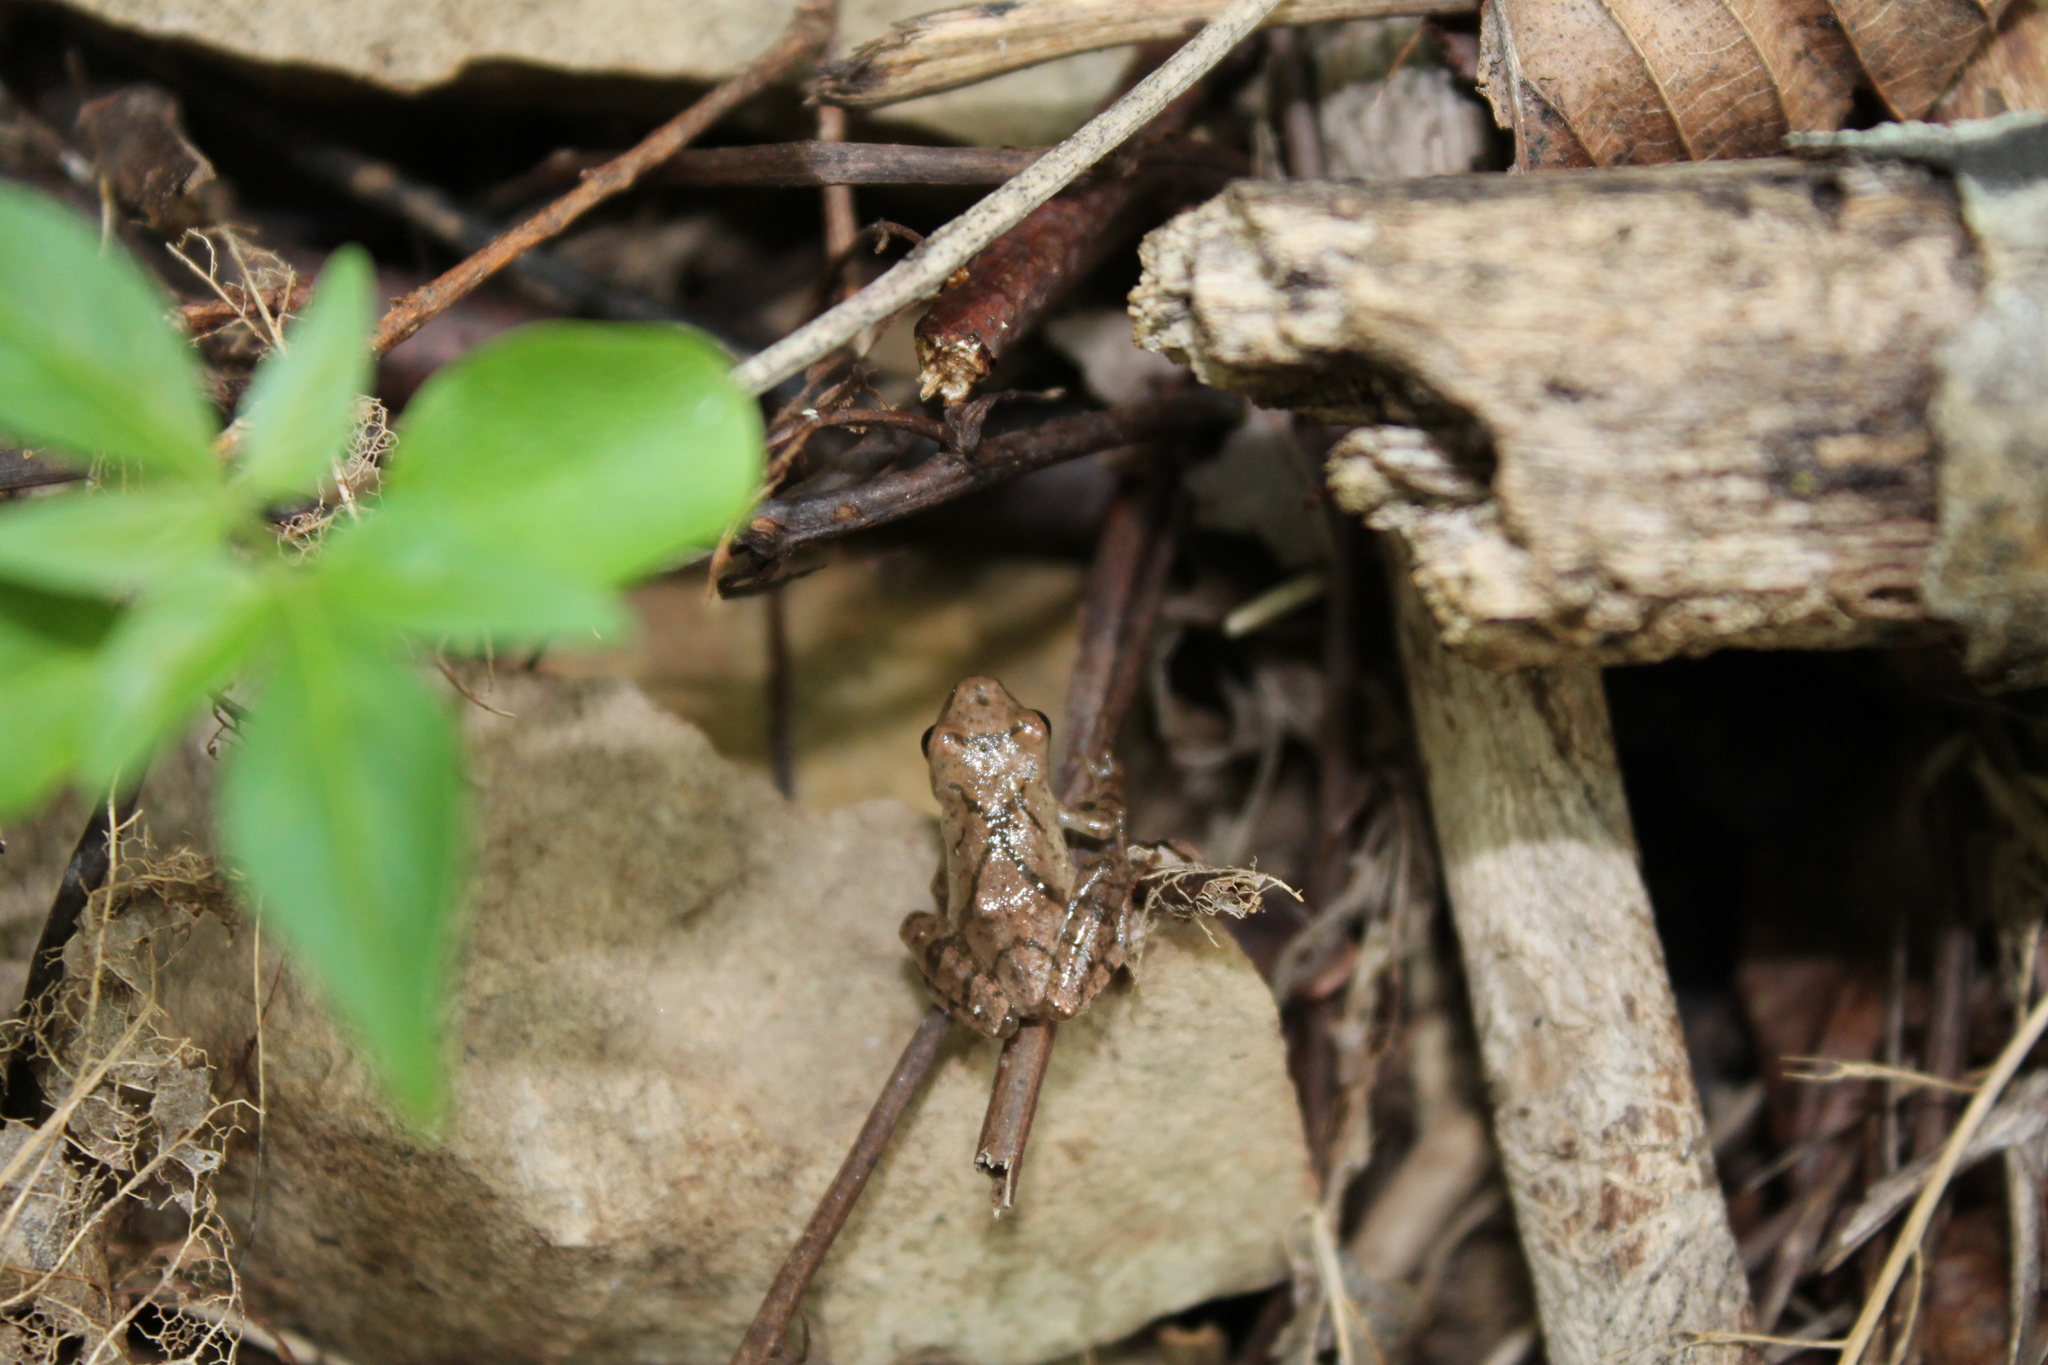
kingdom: Animalia
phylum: Chordata
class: Amphibia
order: Anura
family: Hylidae
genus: Pseudacris
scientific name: Pseudacris crucifer
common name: Spring peeper
